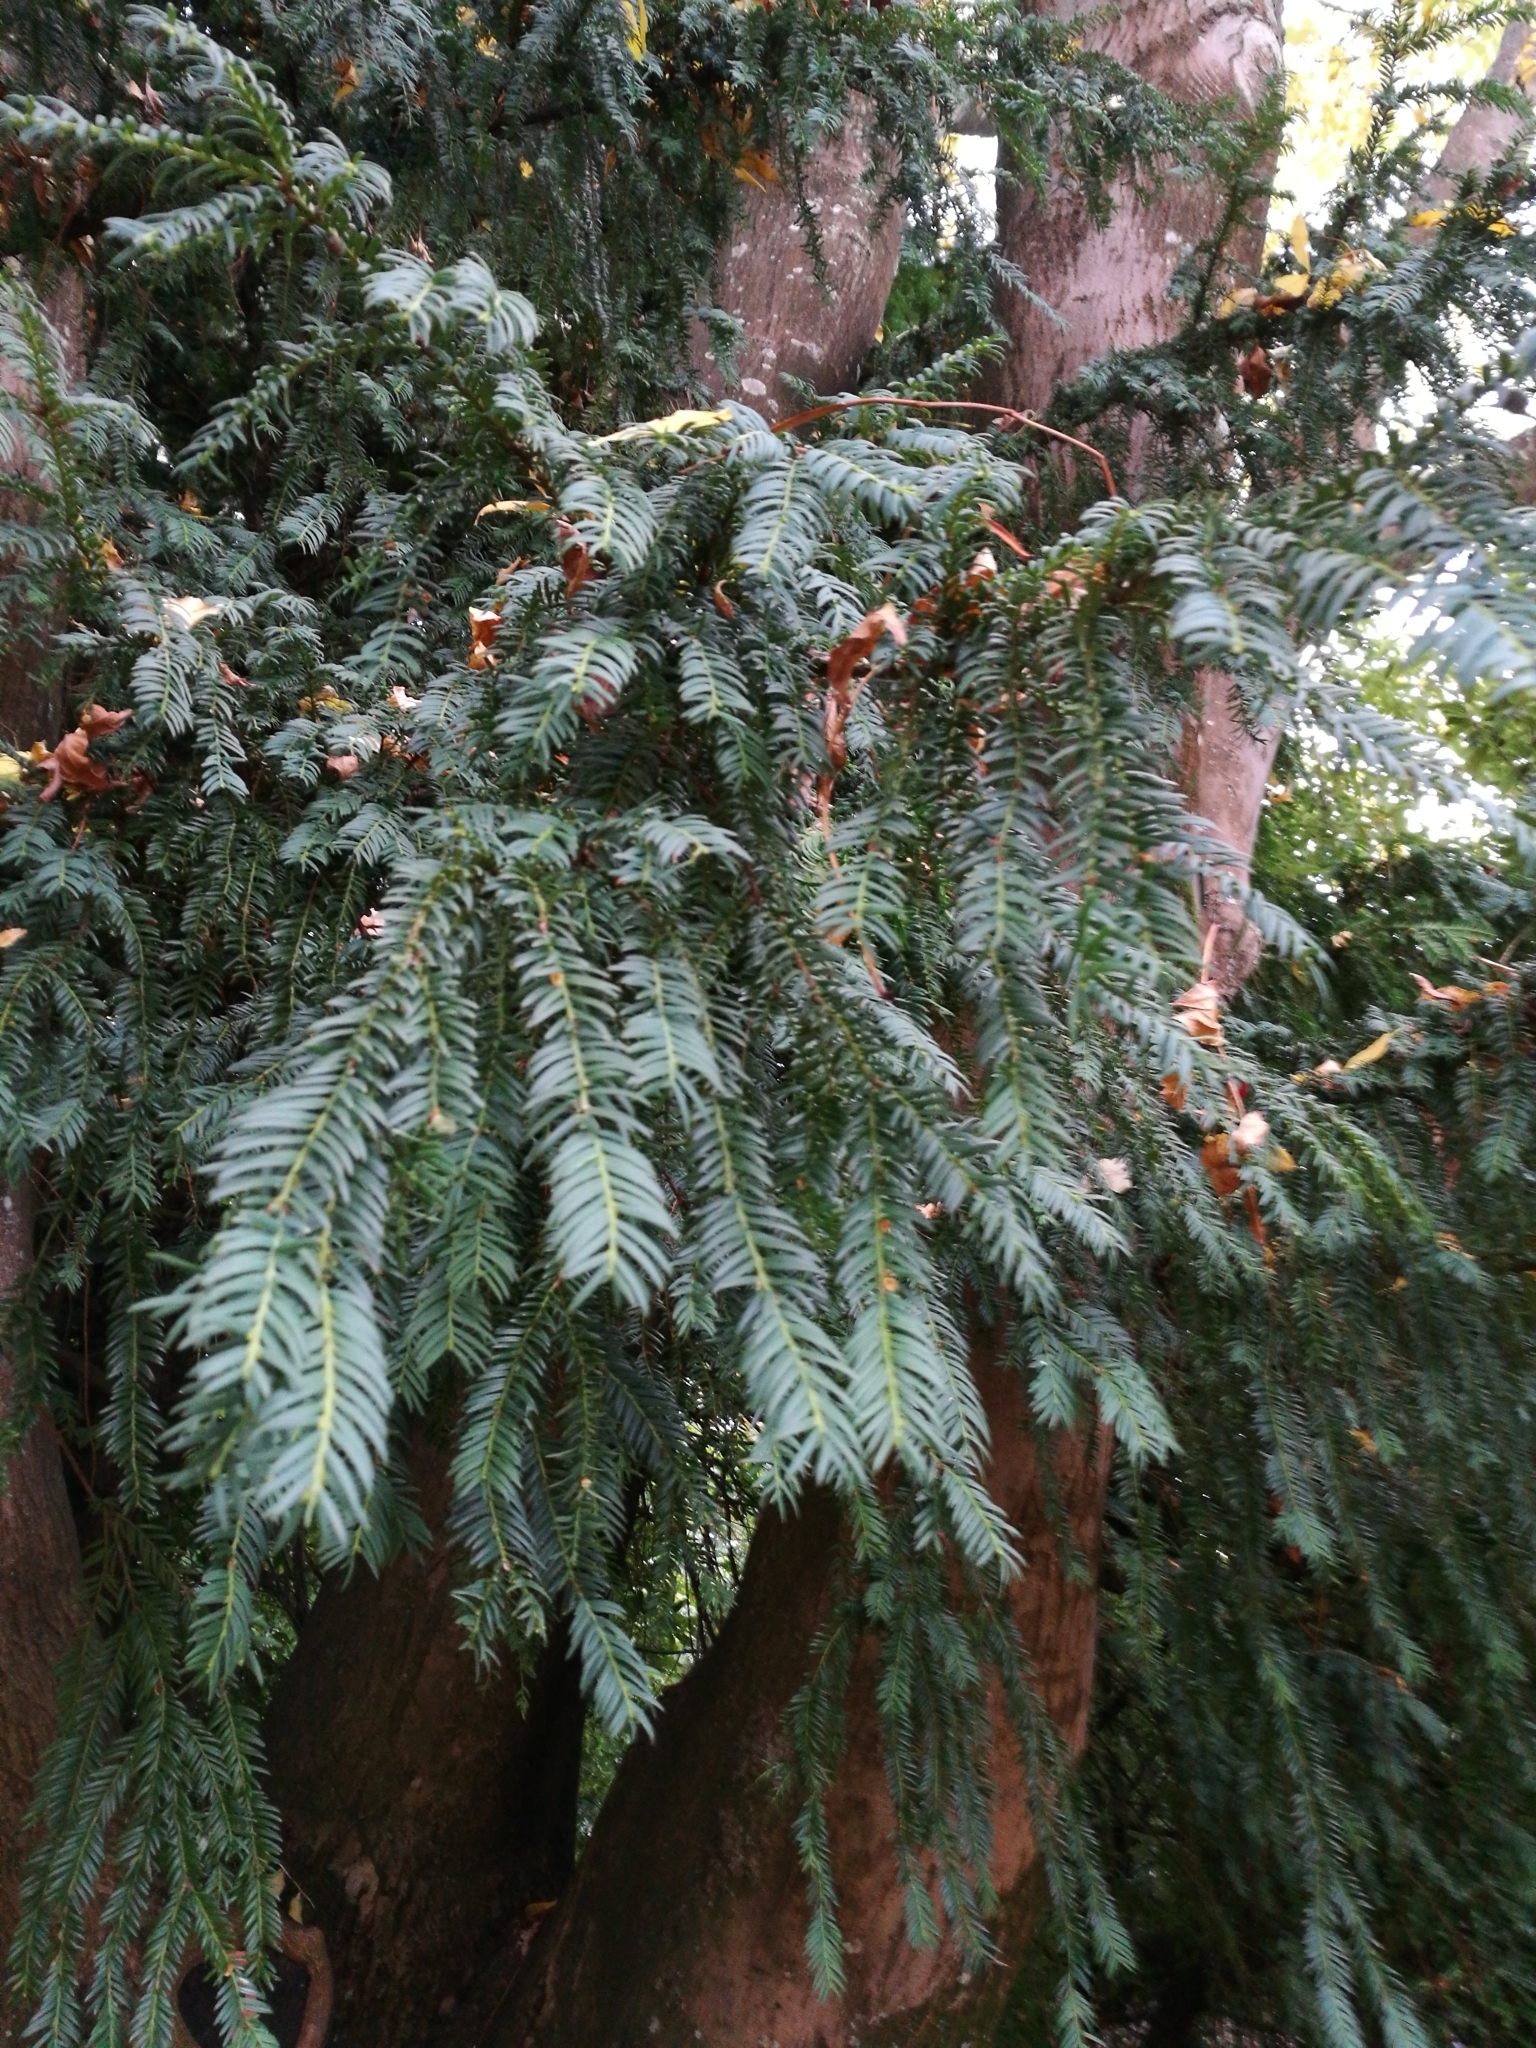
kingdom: Plantae
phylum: Tracheophyta
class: Pinopsida
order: Pinales
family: Taxaceae
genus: Taxus
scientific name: Taxus baccata
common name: Yew
